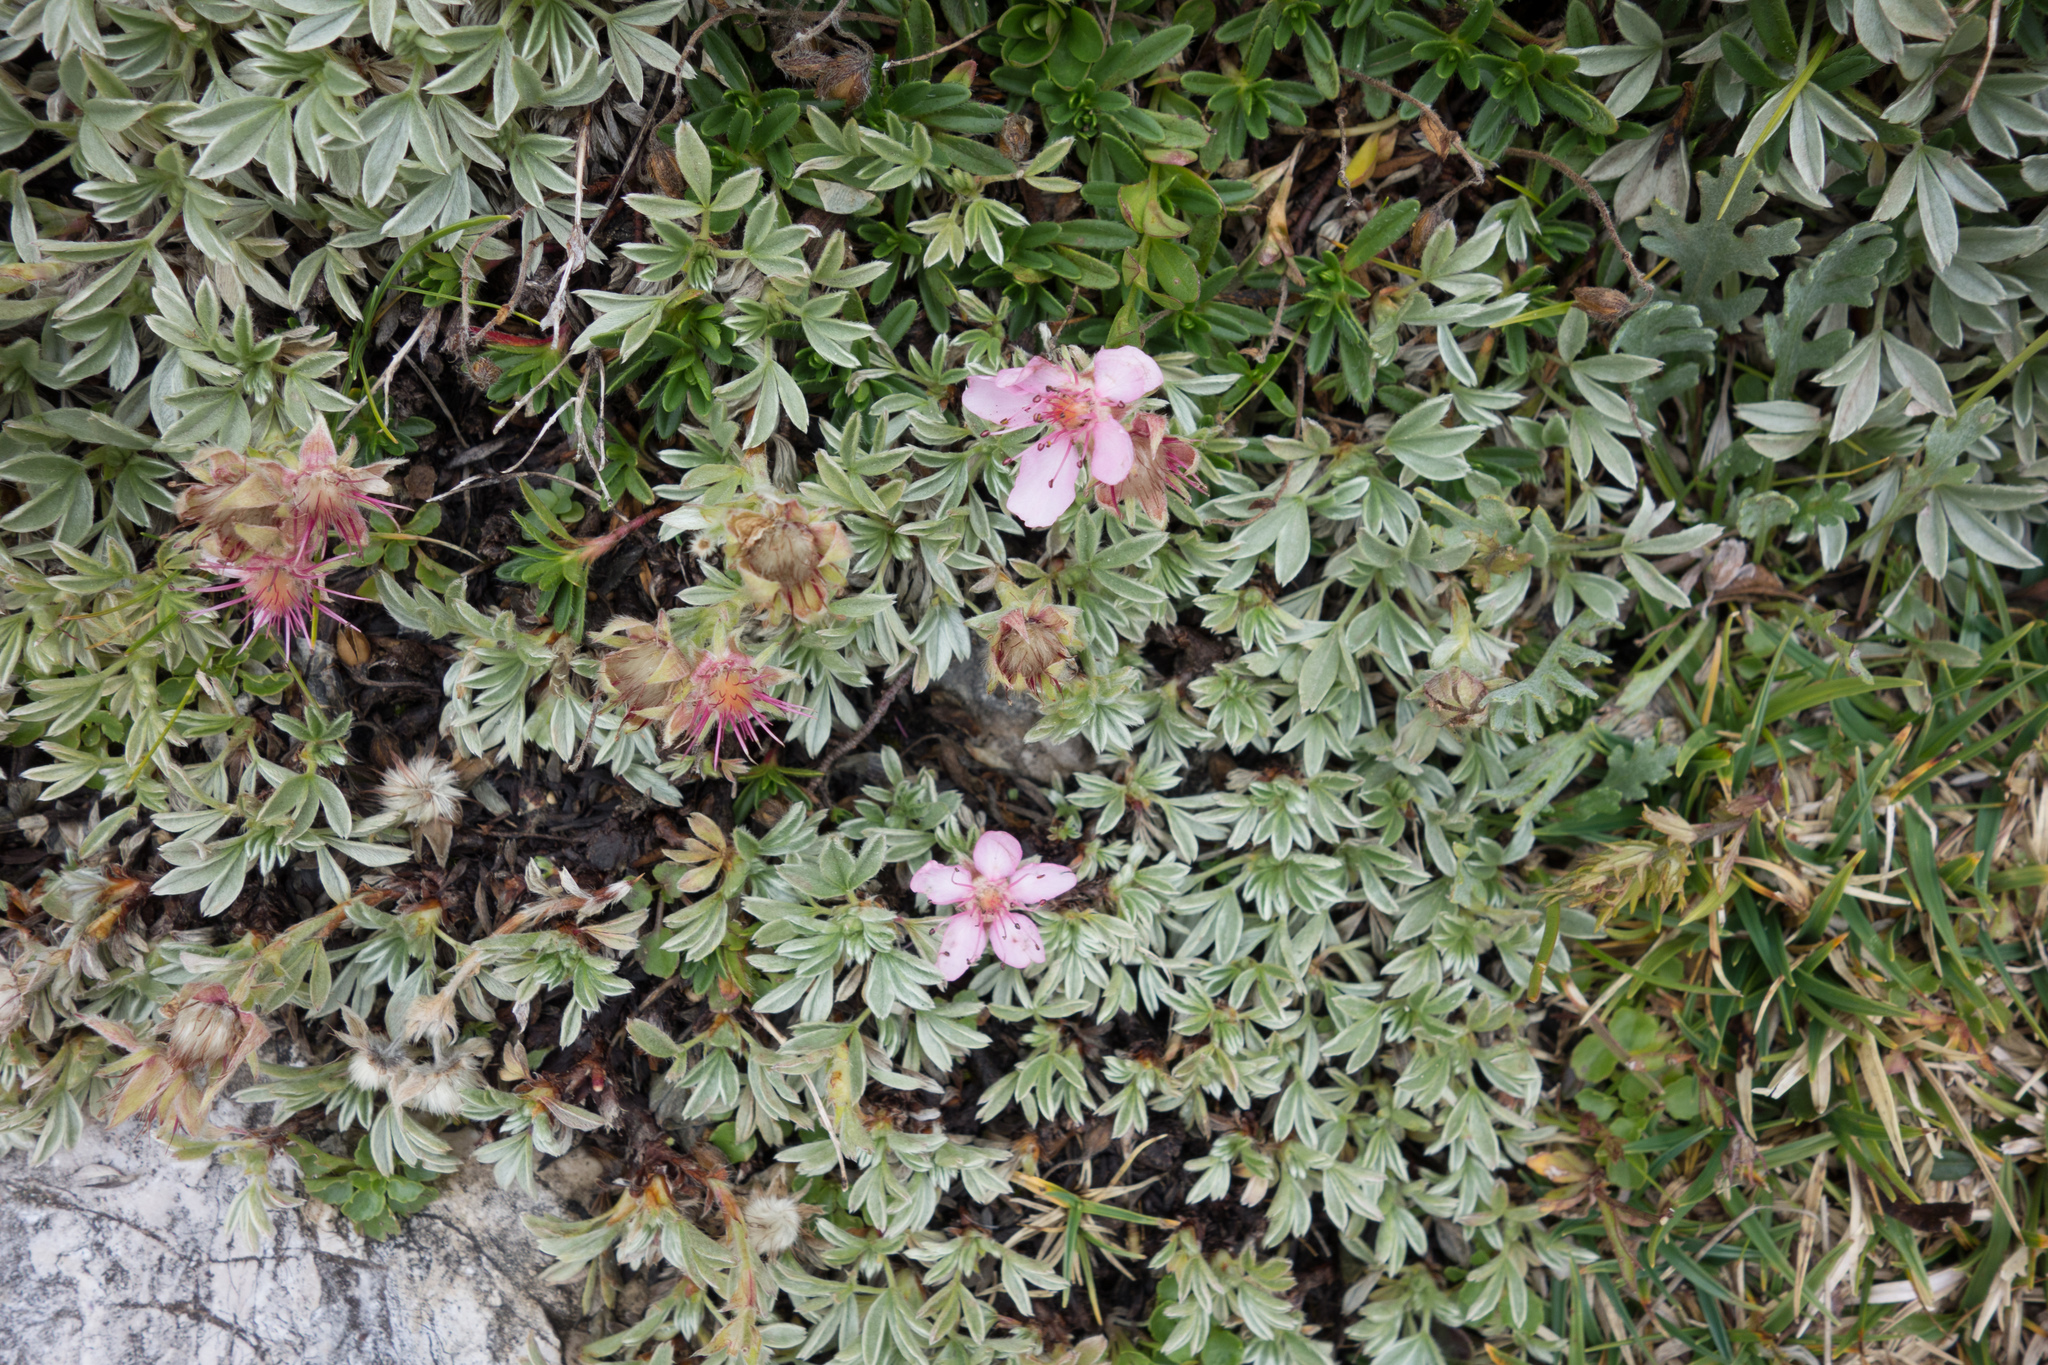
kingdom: Plantae
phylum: Tracheophyta
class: Magnoliopsida
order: Rosales
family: Rosaceae
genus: Potentilla
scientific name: Potentilla nitida
